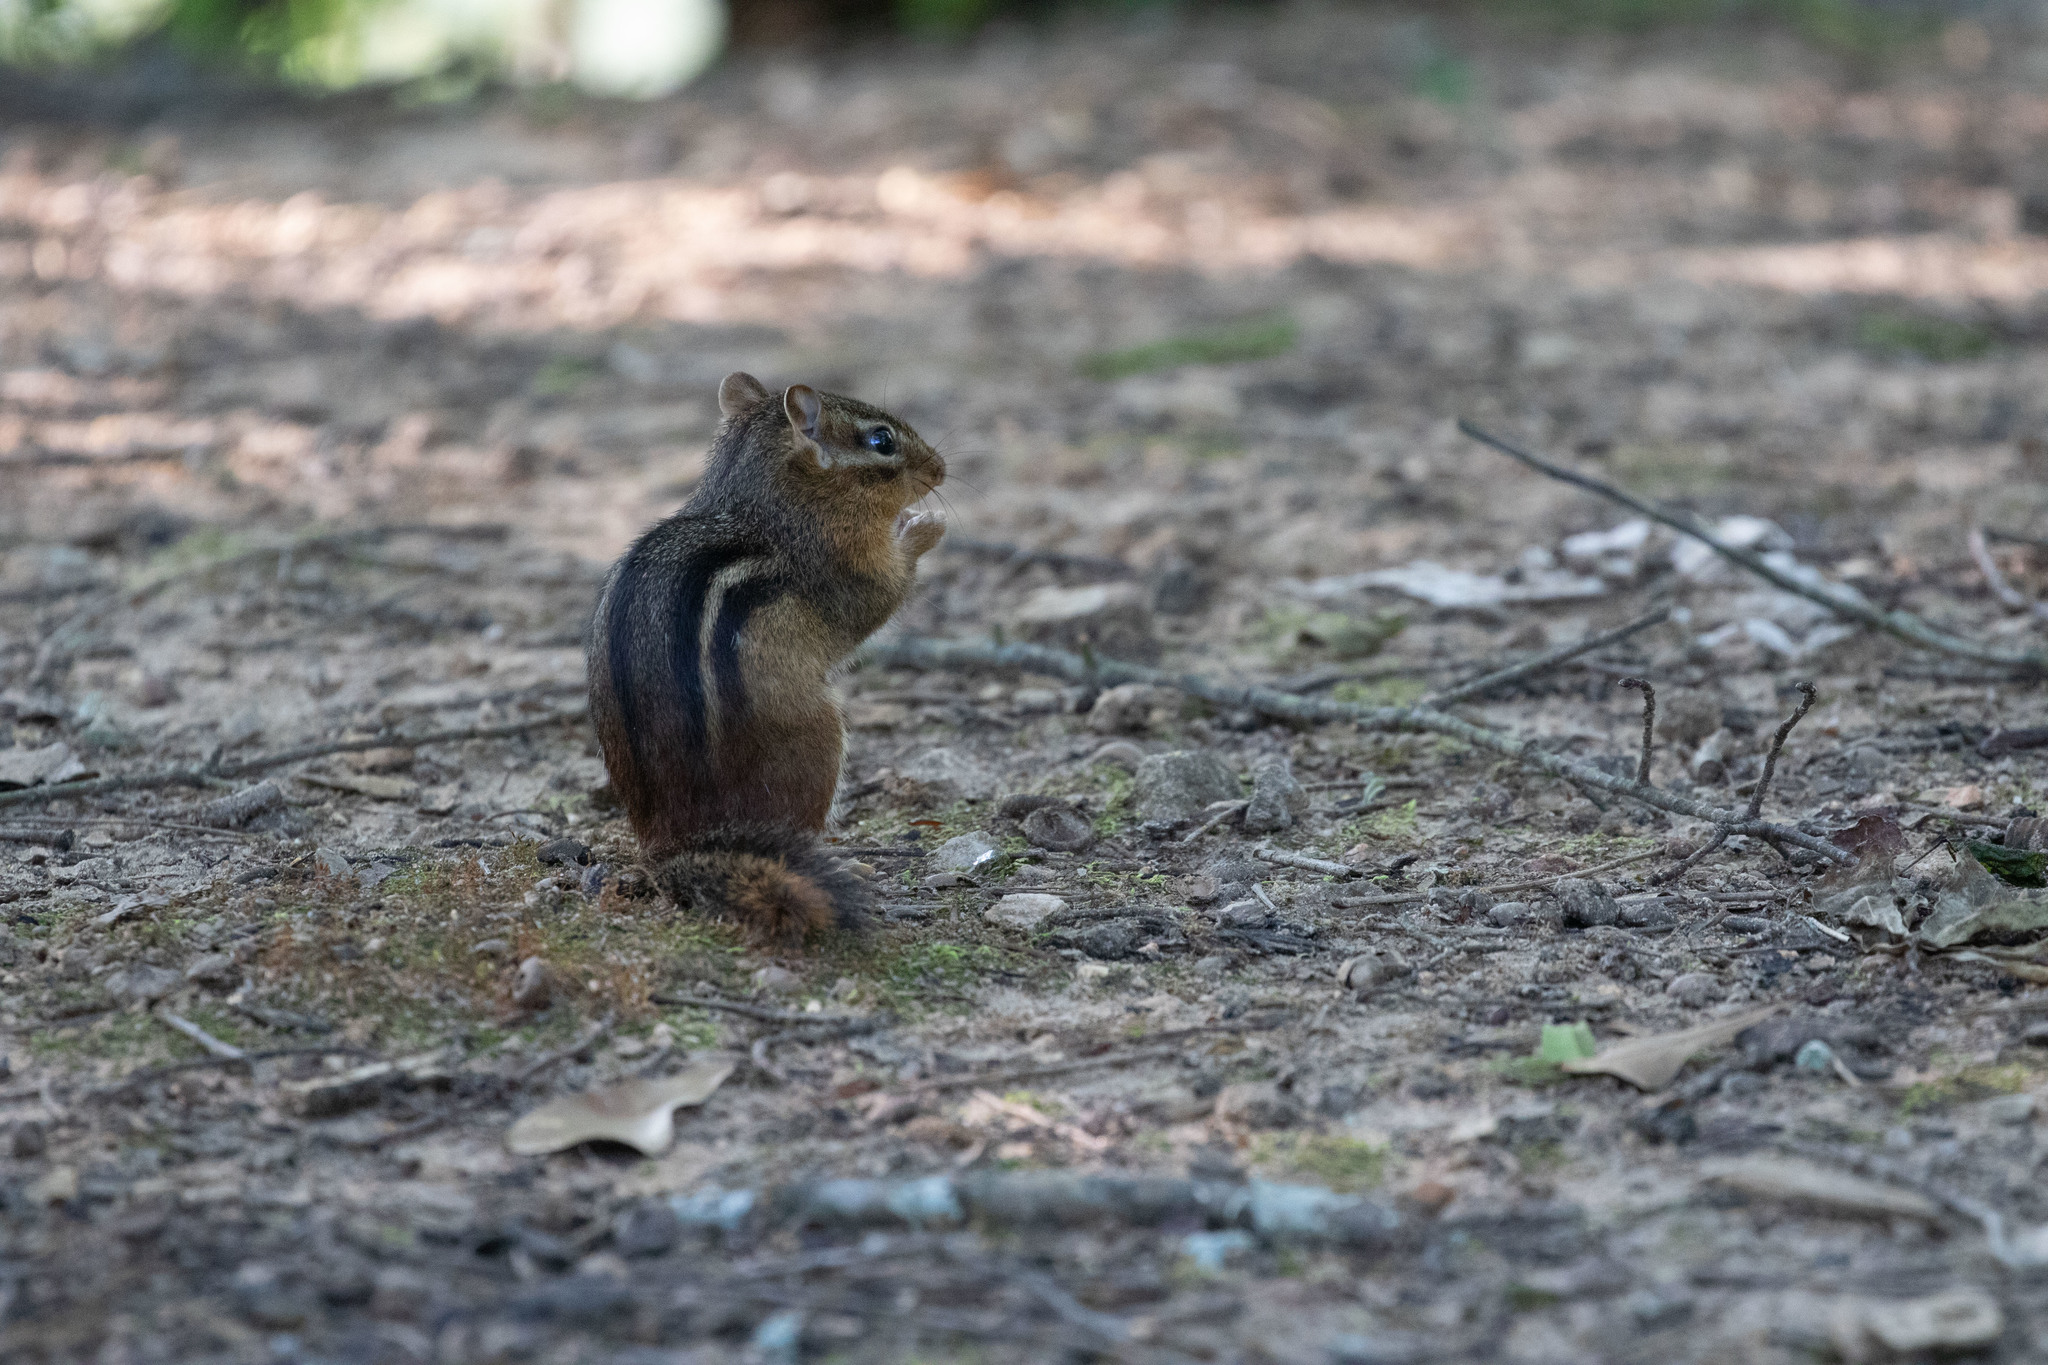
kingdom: Animalia
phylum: Chordata
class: Mammalia
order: Rodentia
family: Sciuridae
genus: Tamias
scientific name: Tamias striatus
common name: Eastern chipmunk
